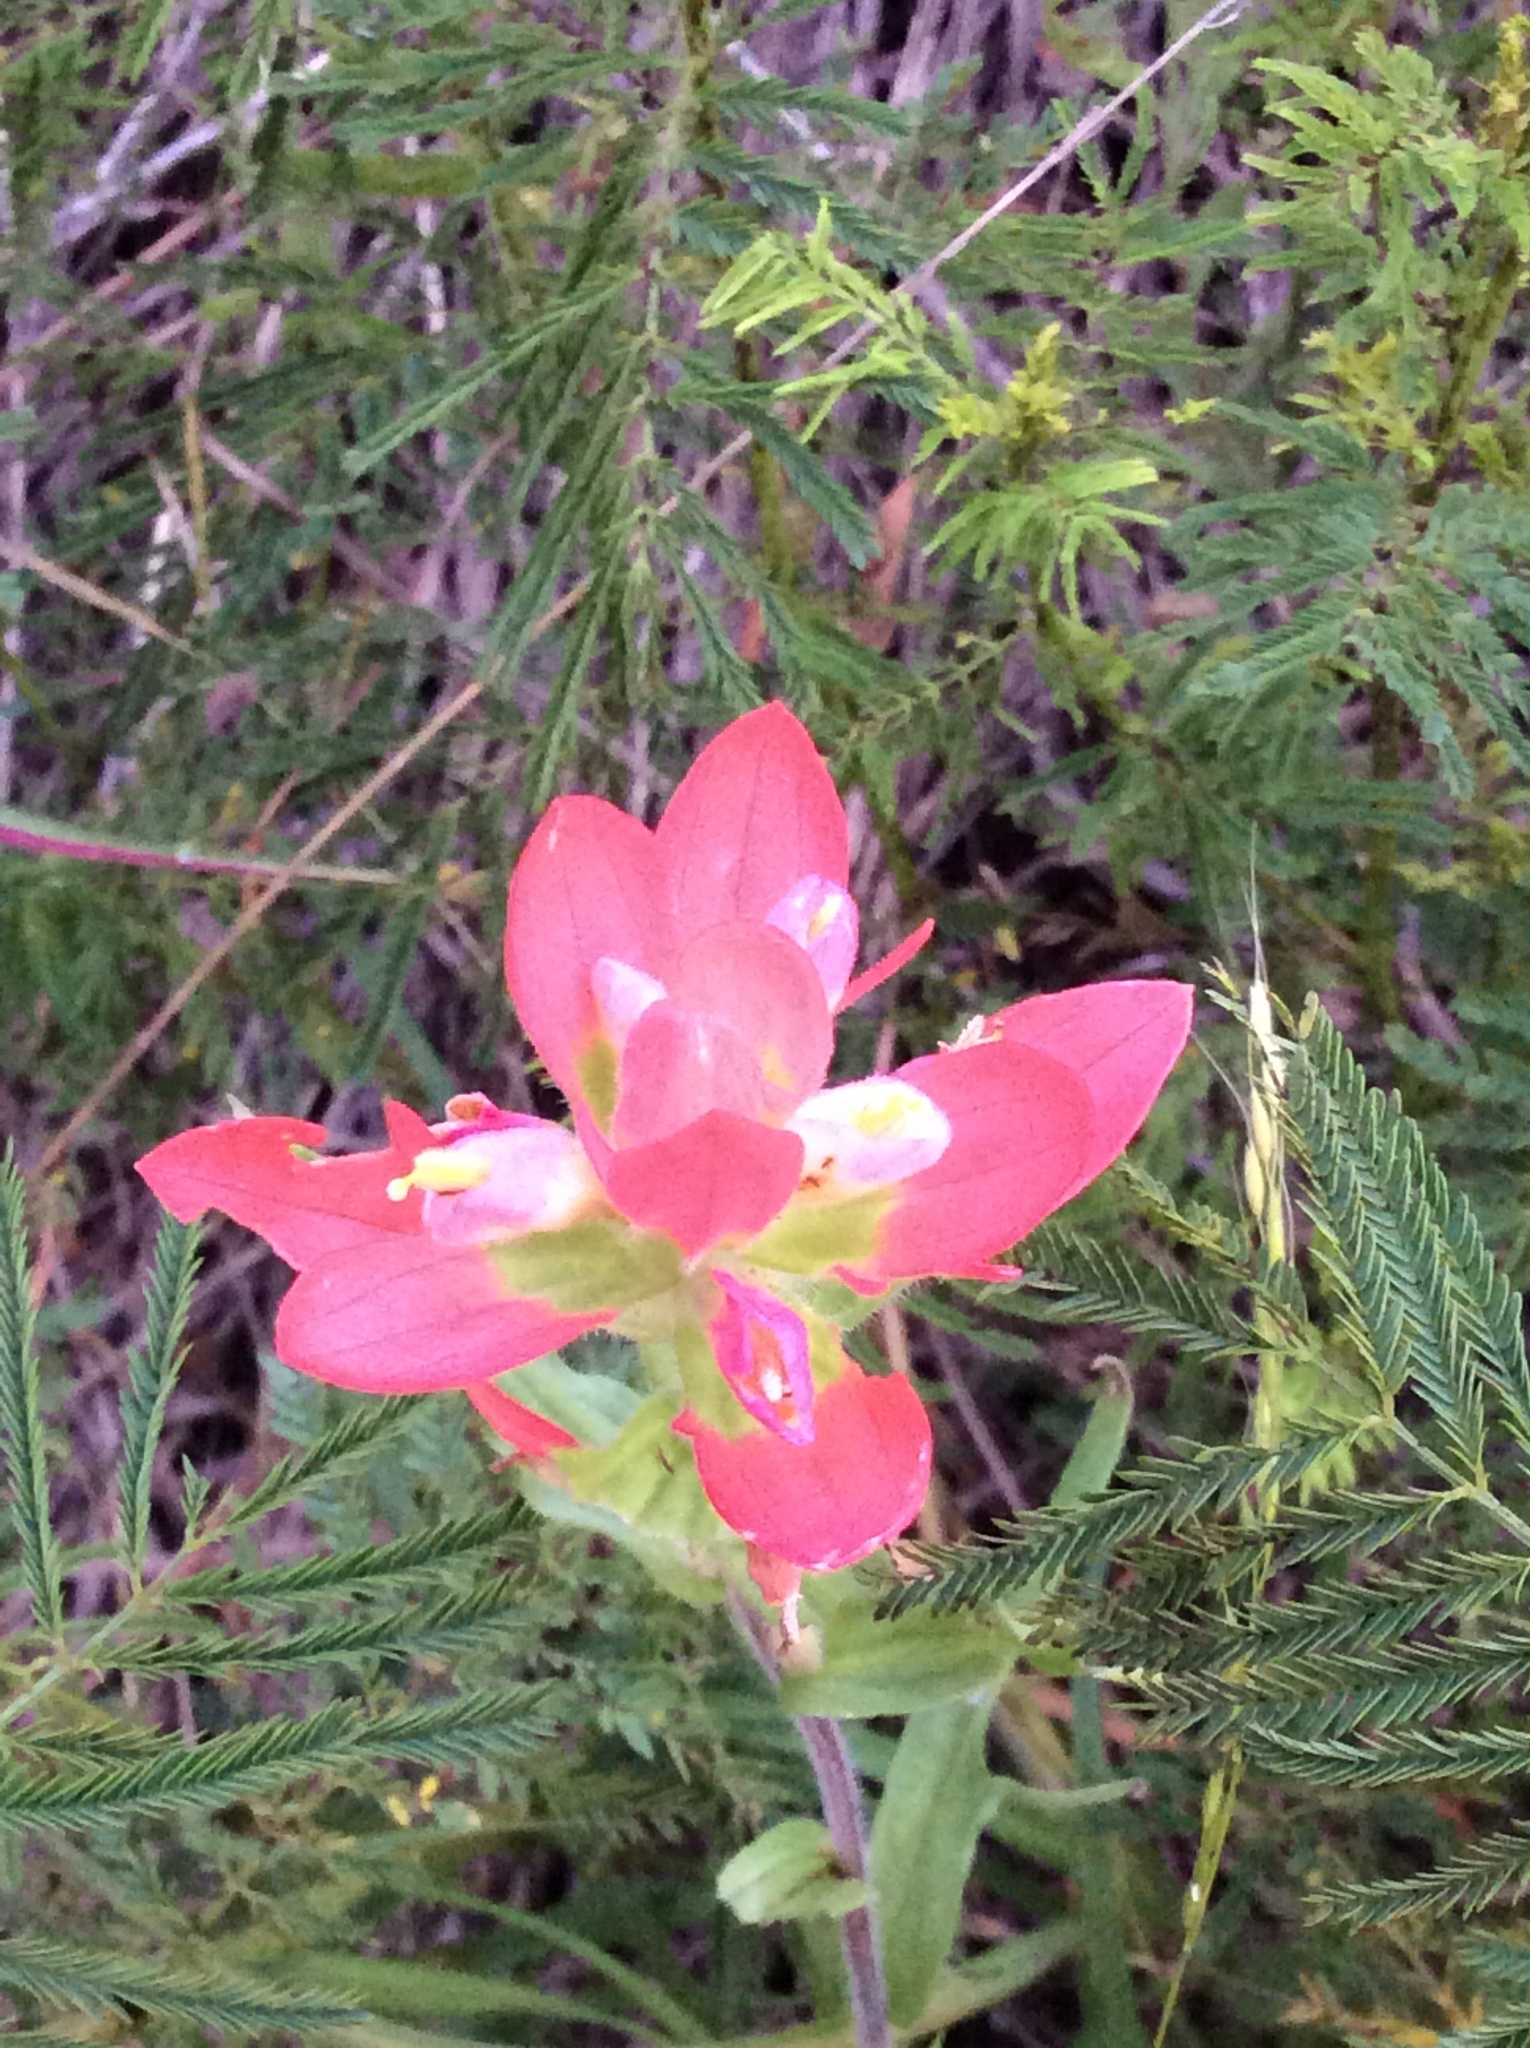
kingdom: Plantae
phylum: Tracheophyta
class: Magnoliopsida
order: Lamiales
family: Orobanchaceae
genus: Castilleja
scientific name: Castilleja indivisa
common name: Texas paintbrush
